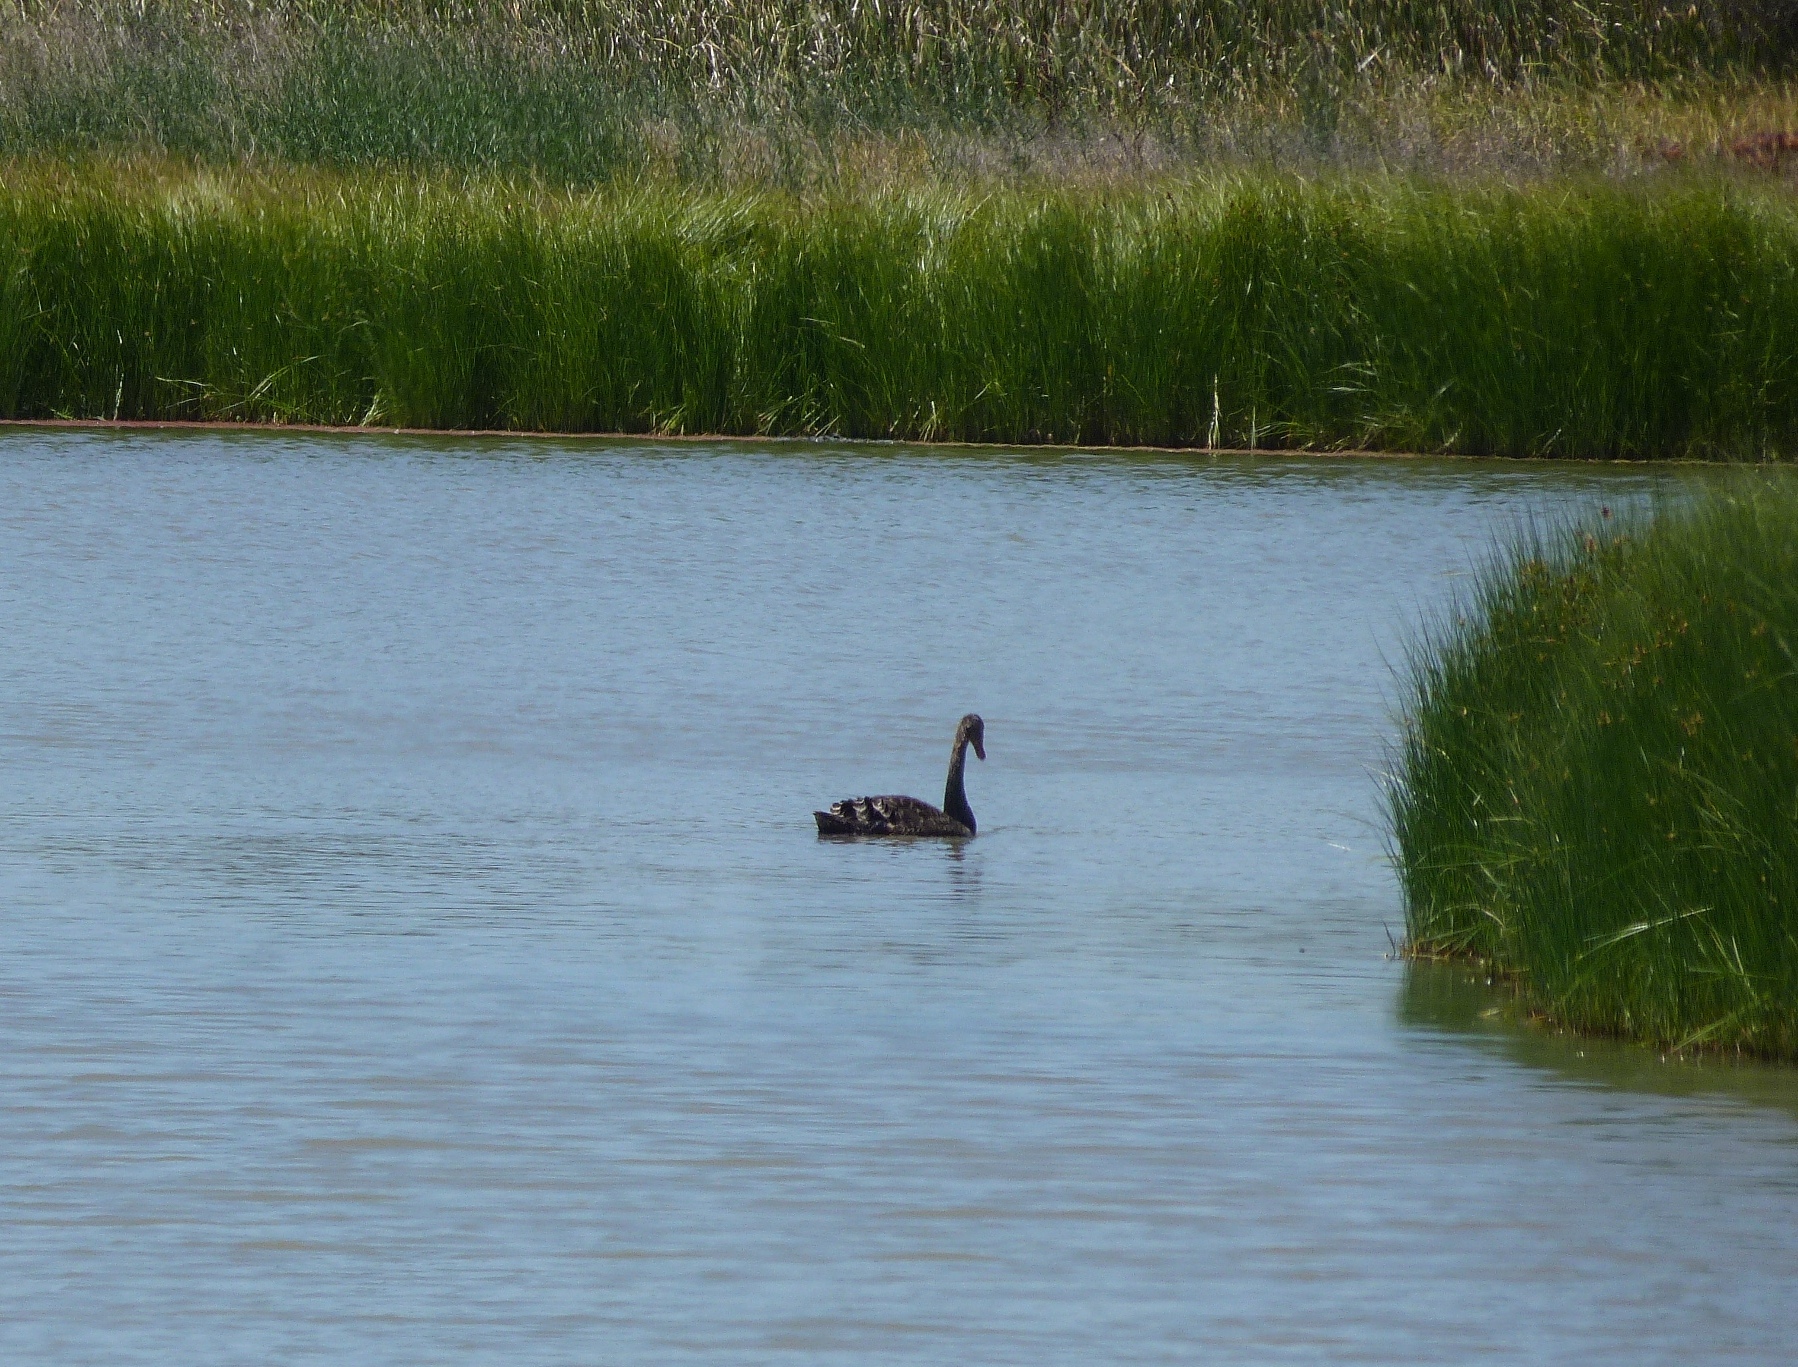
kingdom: Animalia
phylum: Chordata
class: Aves
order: Anseriformes
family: Anatidae
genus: Cygnus
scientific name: Cygnus atratus
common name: Black swan
